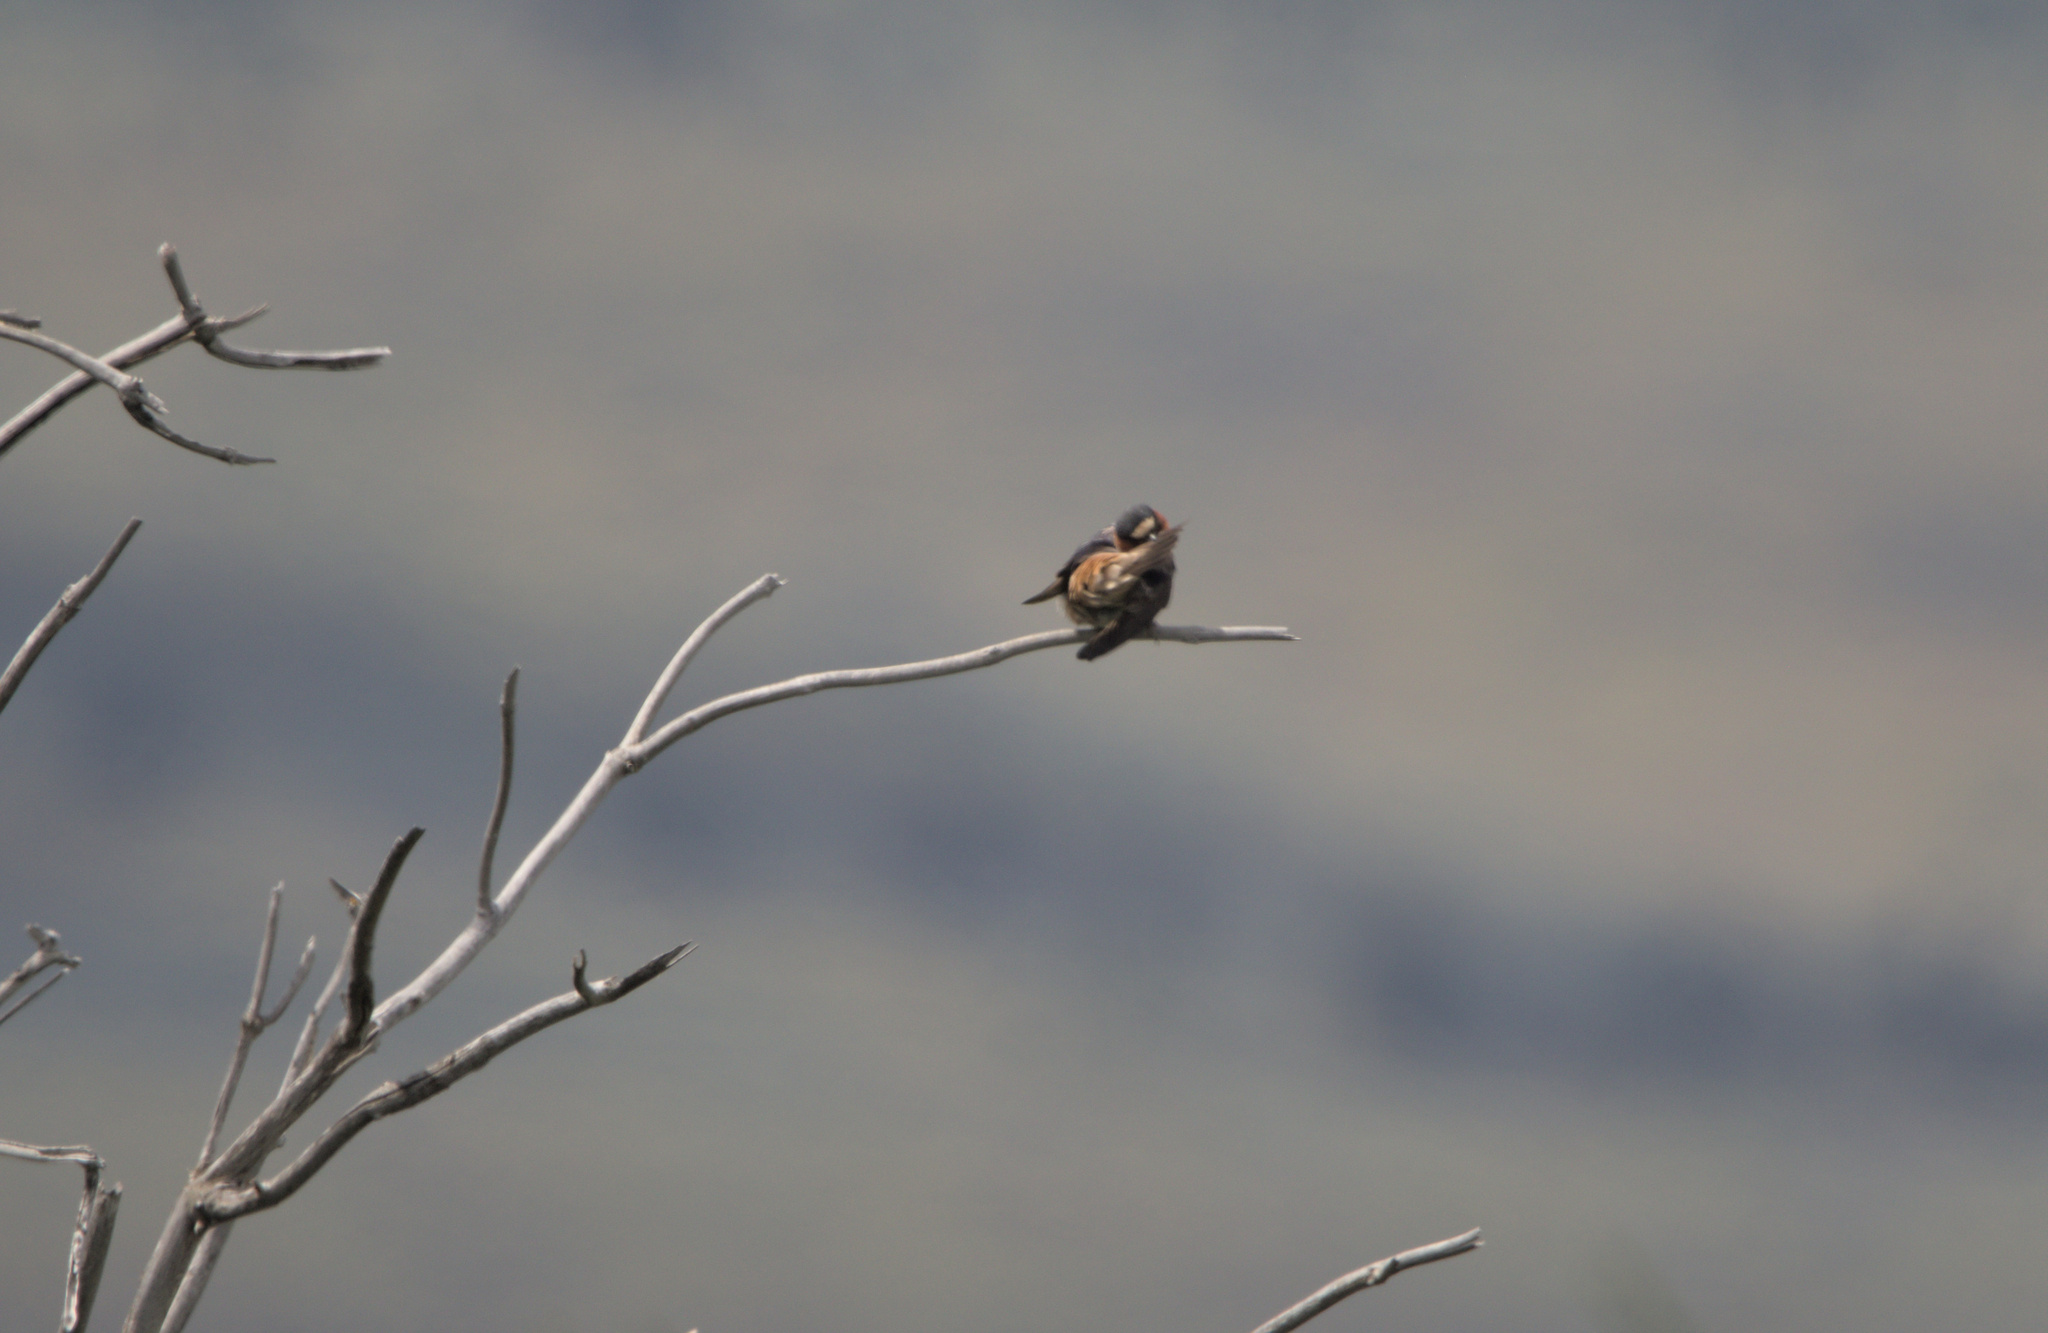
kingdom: Animalia
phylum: Chordata
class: Aves
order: Passeriformes
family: Hirundinidae
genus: Petrochelidon
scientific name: Petrochelidon pyrrhonota
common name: American cliff swallow
